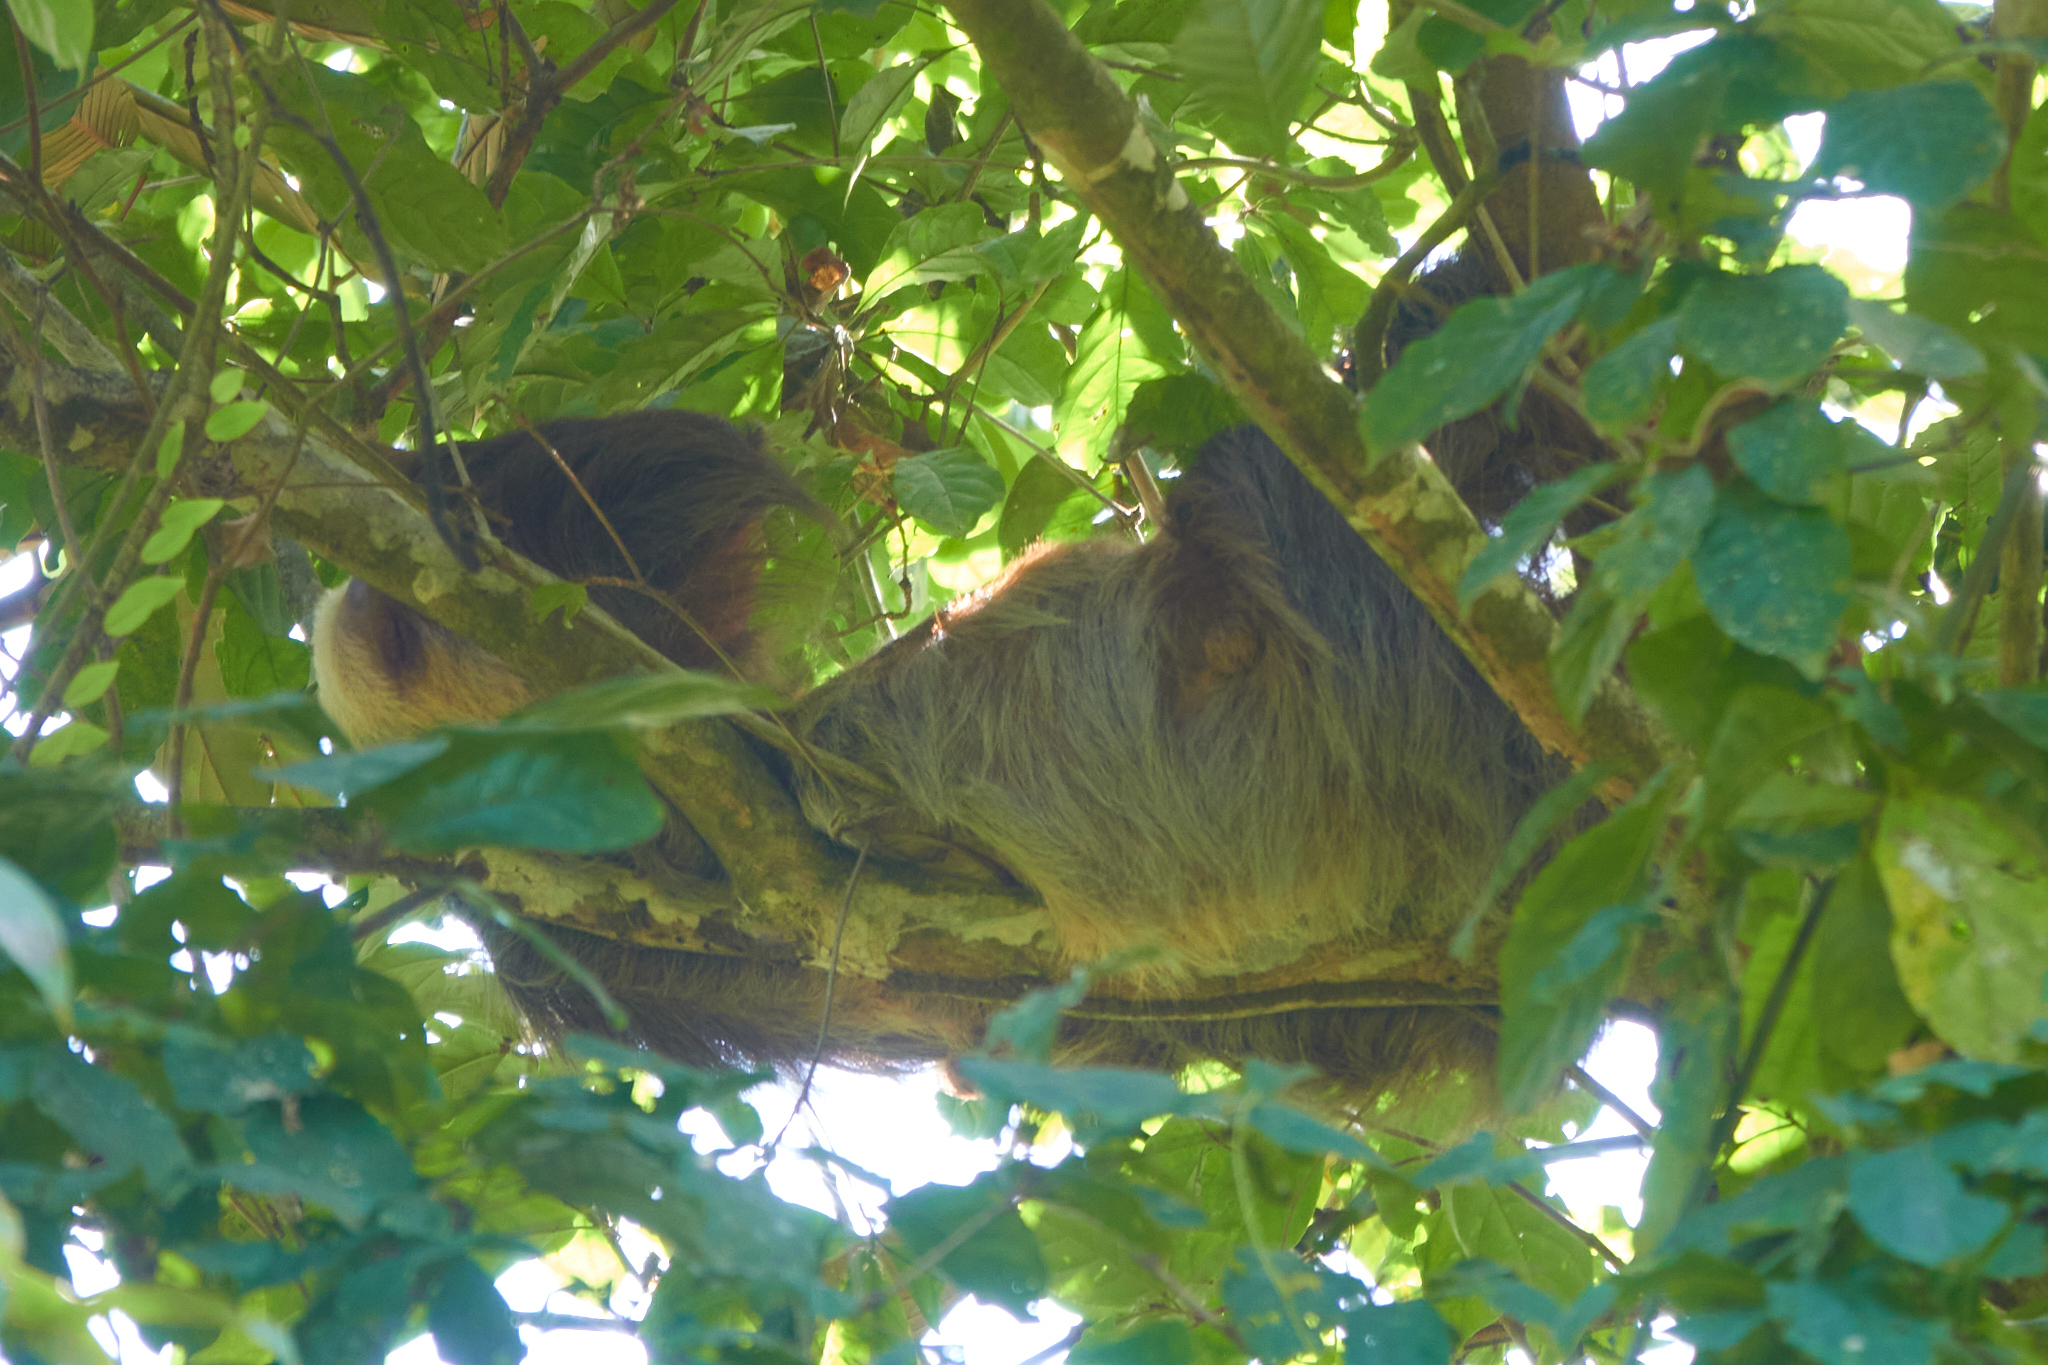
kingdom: Animalia
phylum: Chordata
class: Mammalia
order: Pilosa
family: Megalonychidae
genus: Choloepus
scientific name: Choloepus hoffmanni
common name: Hoffmann's two-toed sloth
